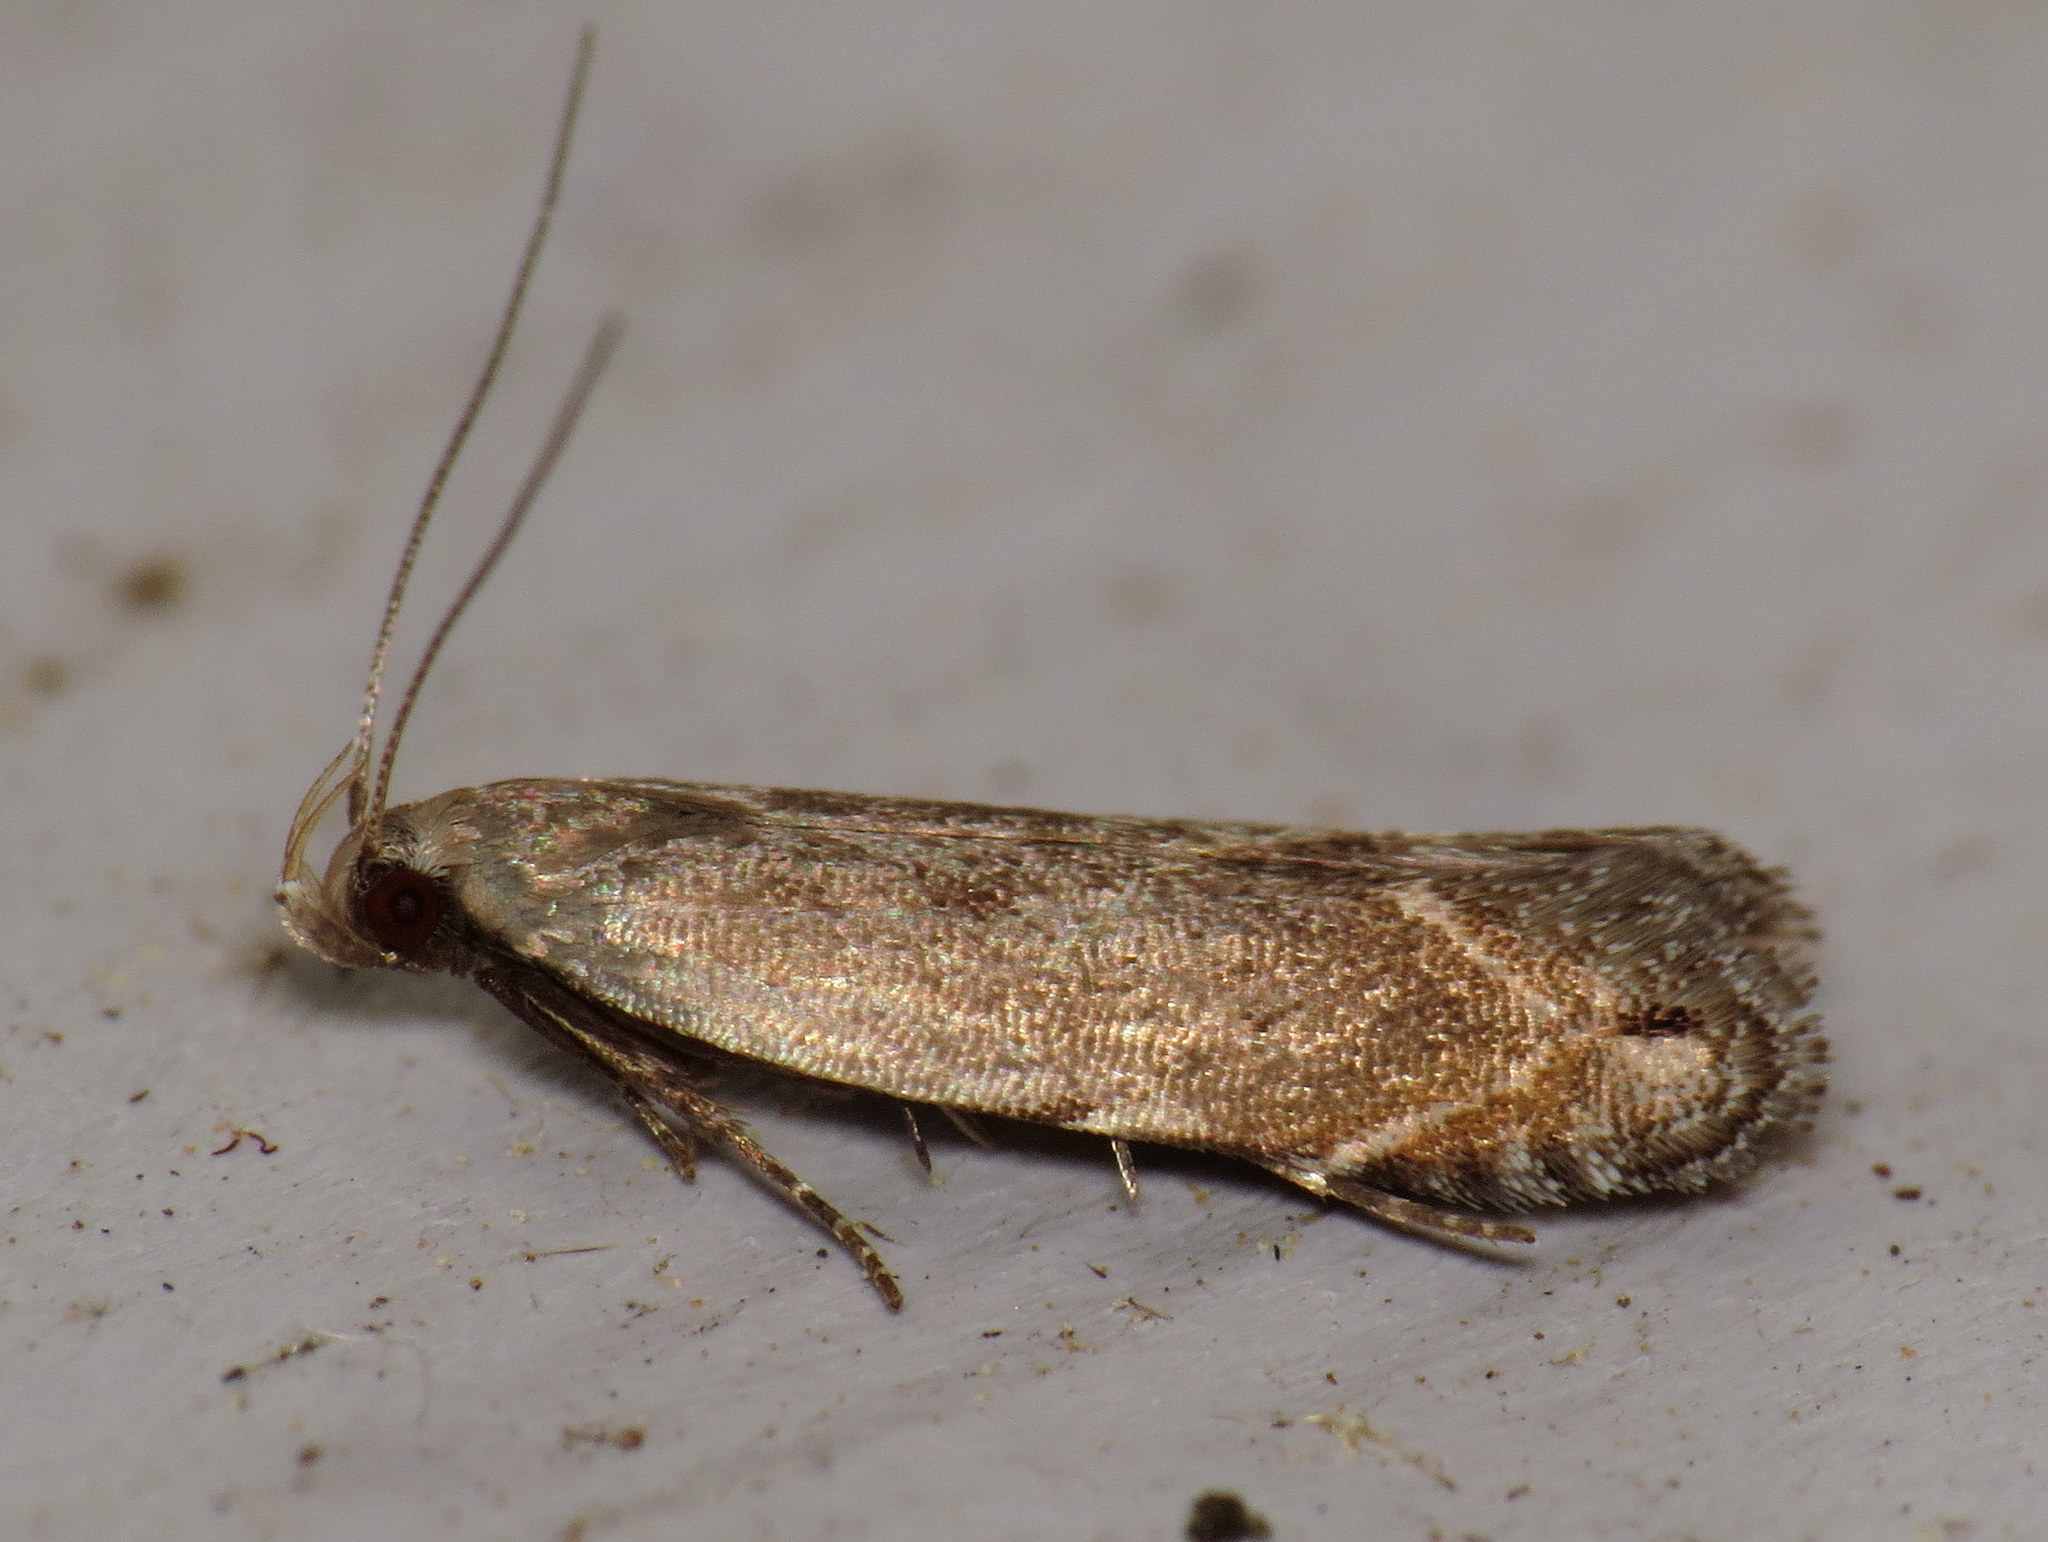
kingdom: Animalia
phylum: Arthropoda
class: Insecta
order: Lepidoptera
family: Gelechiidae
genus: Battaristis
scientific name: Battaristis concinnusella
